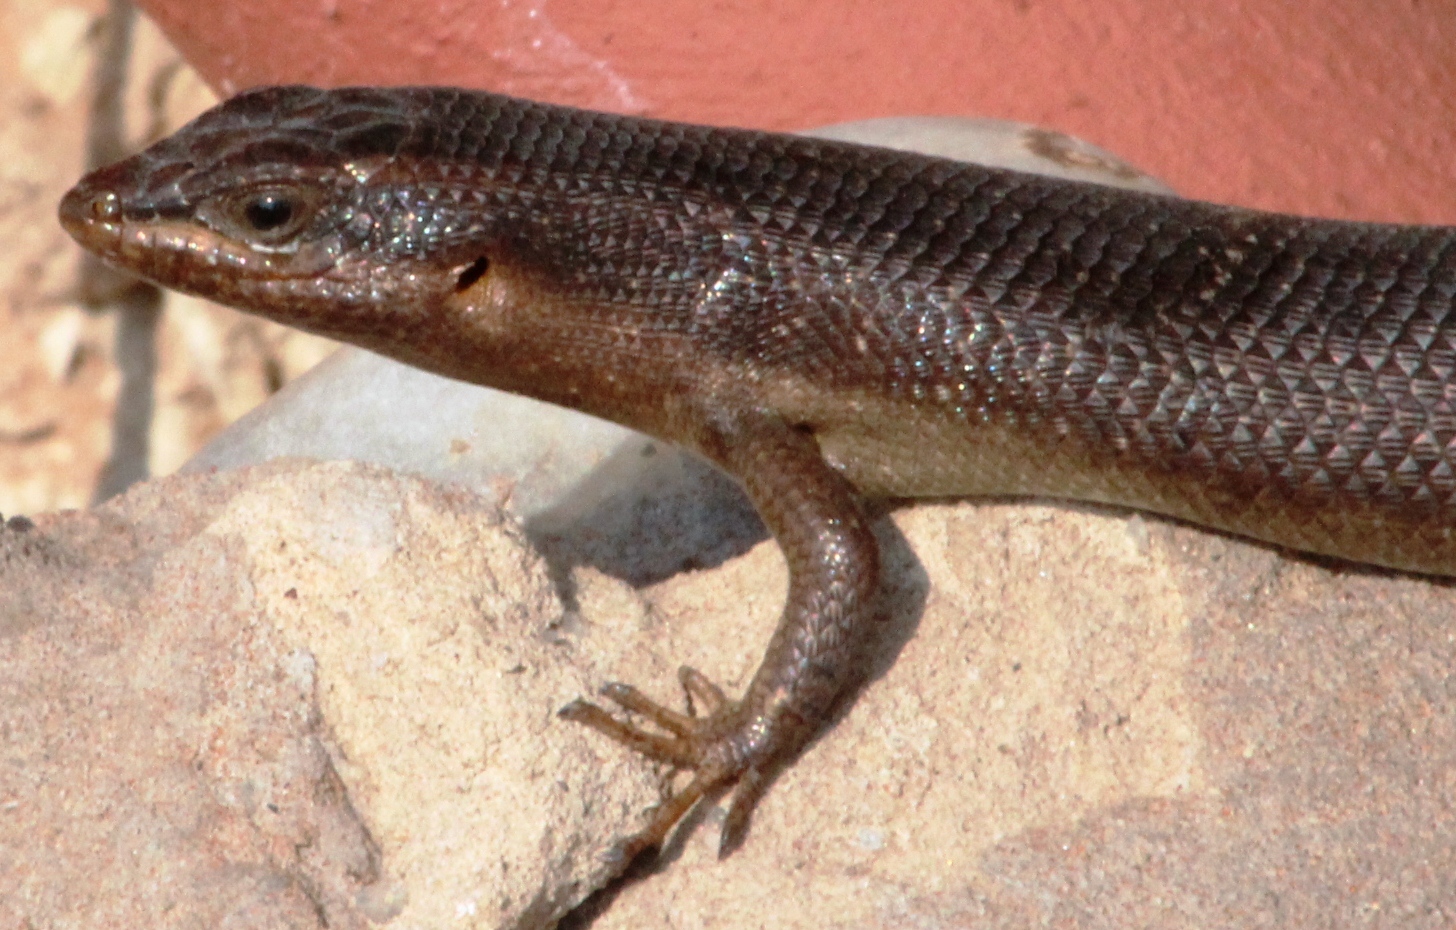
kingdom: Animalia
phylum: Chordata
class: Squamata
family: Scincidae
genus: Trachylepis
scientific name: Trachylepis sparsa
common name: Karasburg tree skink
